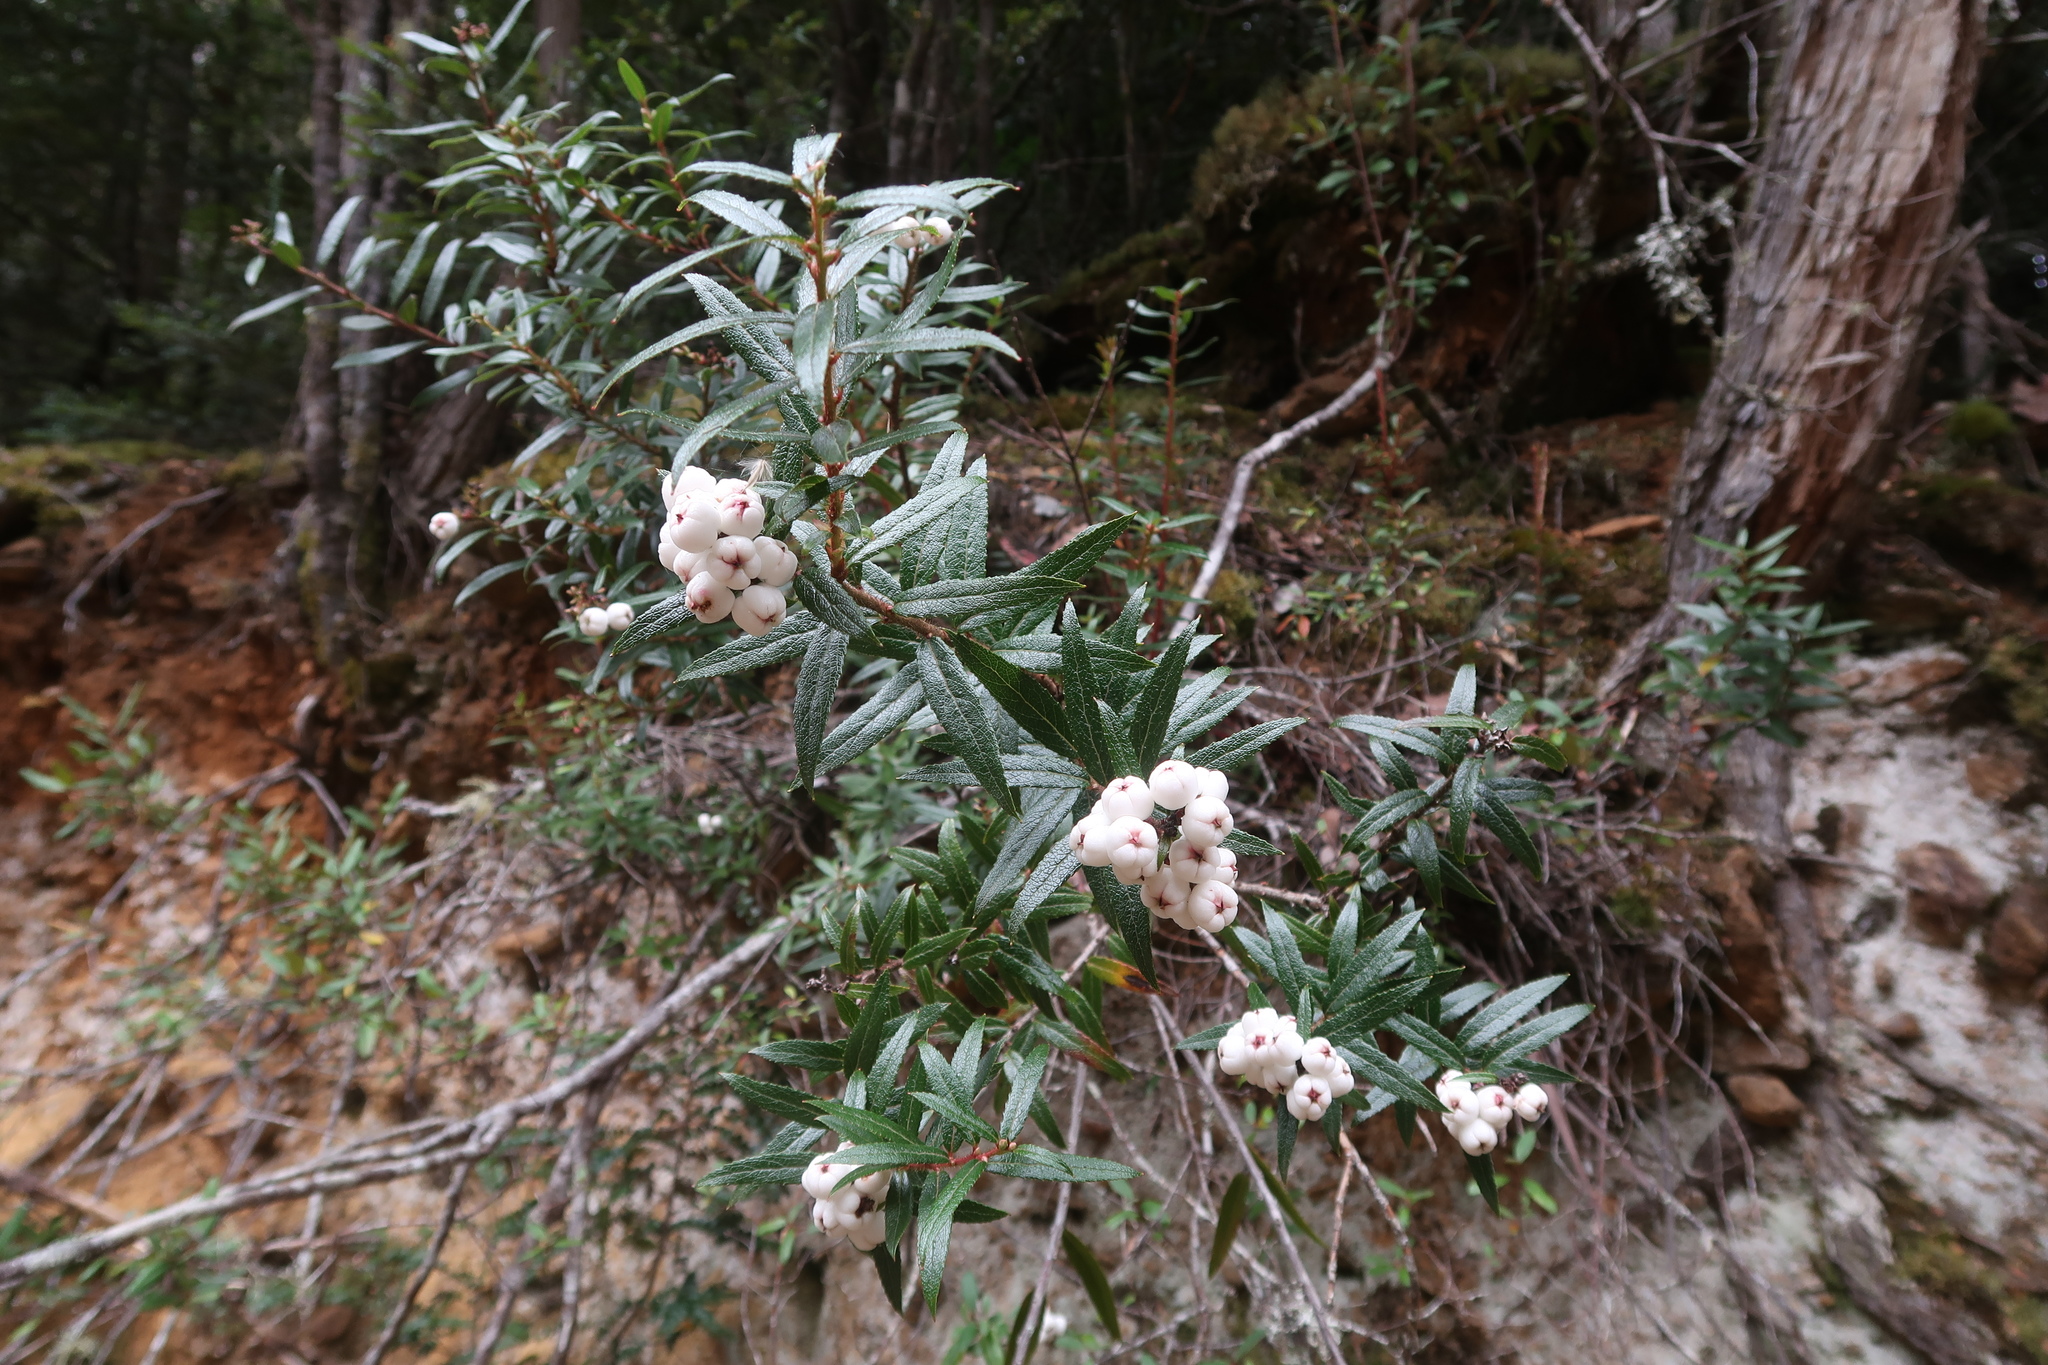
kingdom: Plantae
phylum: Tracheophyta
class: Magnoliopsida
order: Ericales
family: Ericaceae
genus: Gaultheria
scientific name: Gaultheria hispida
